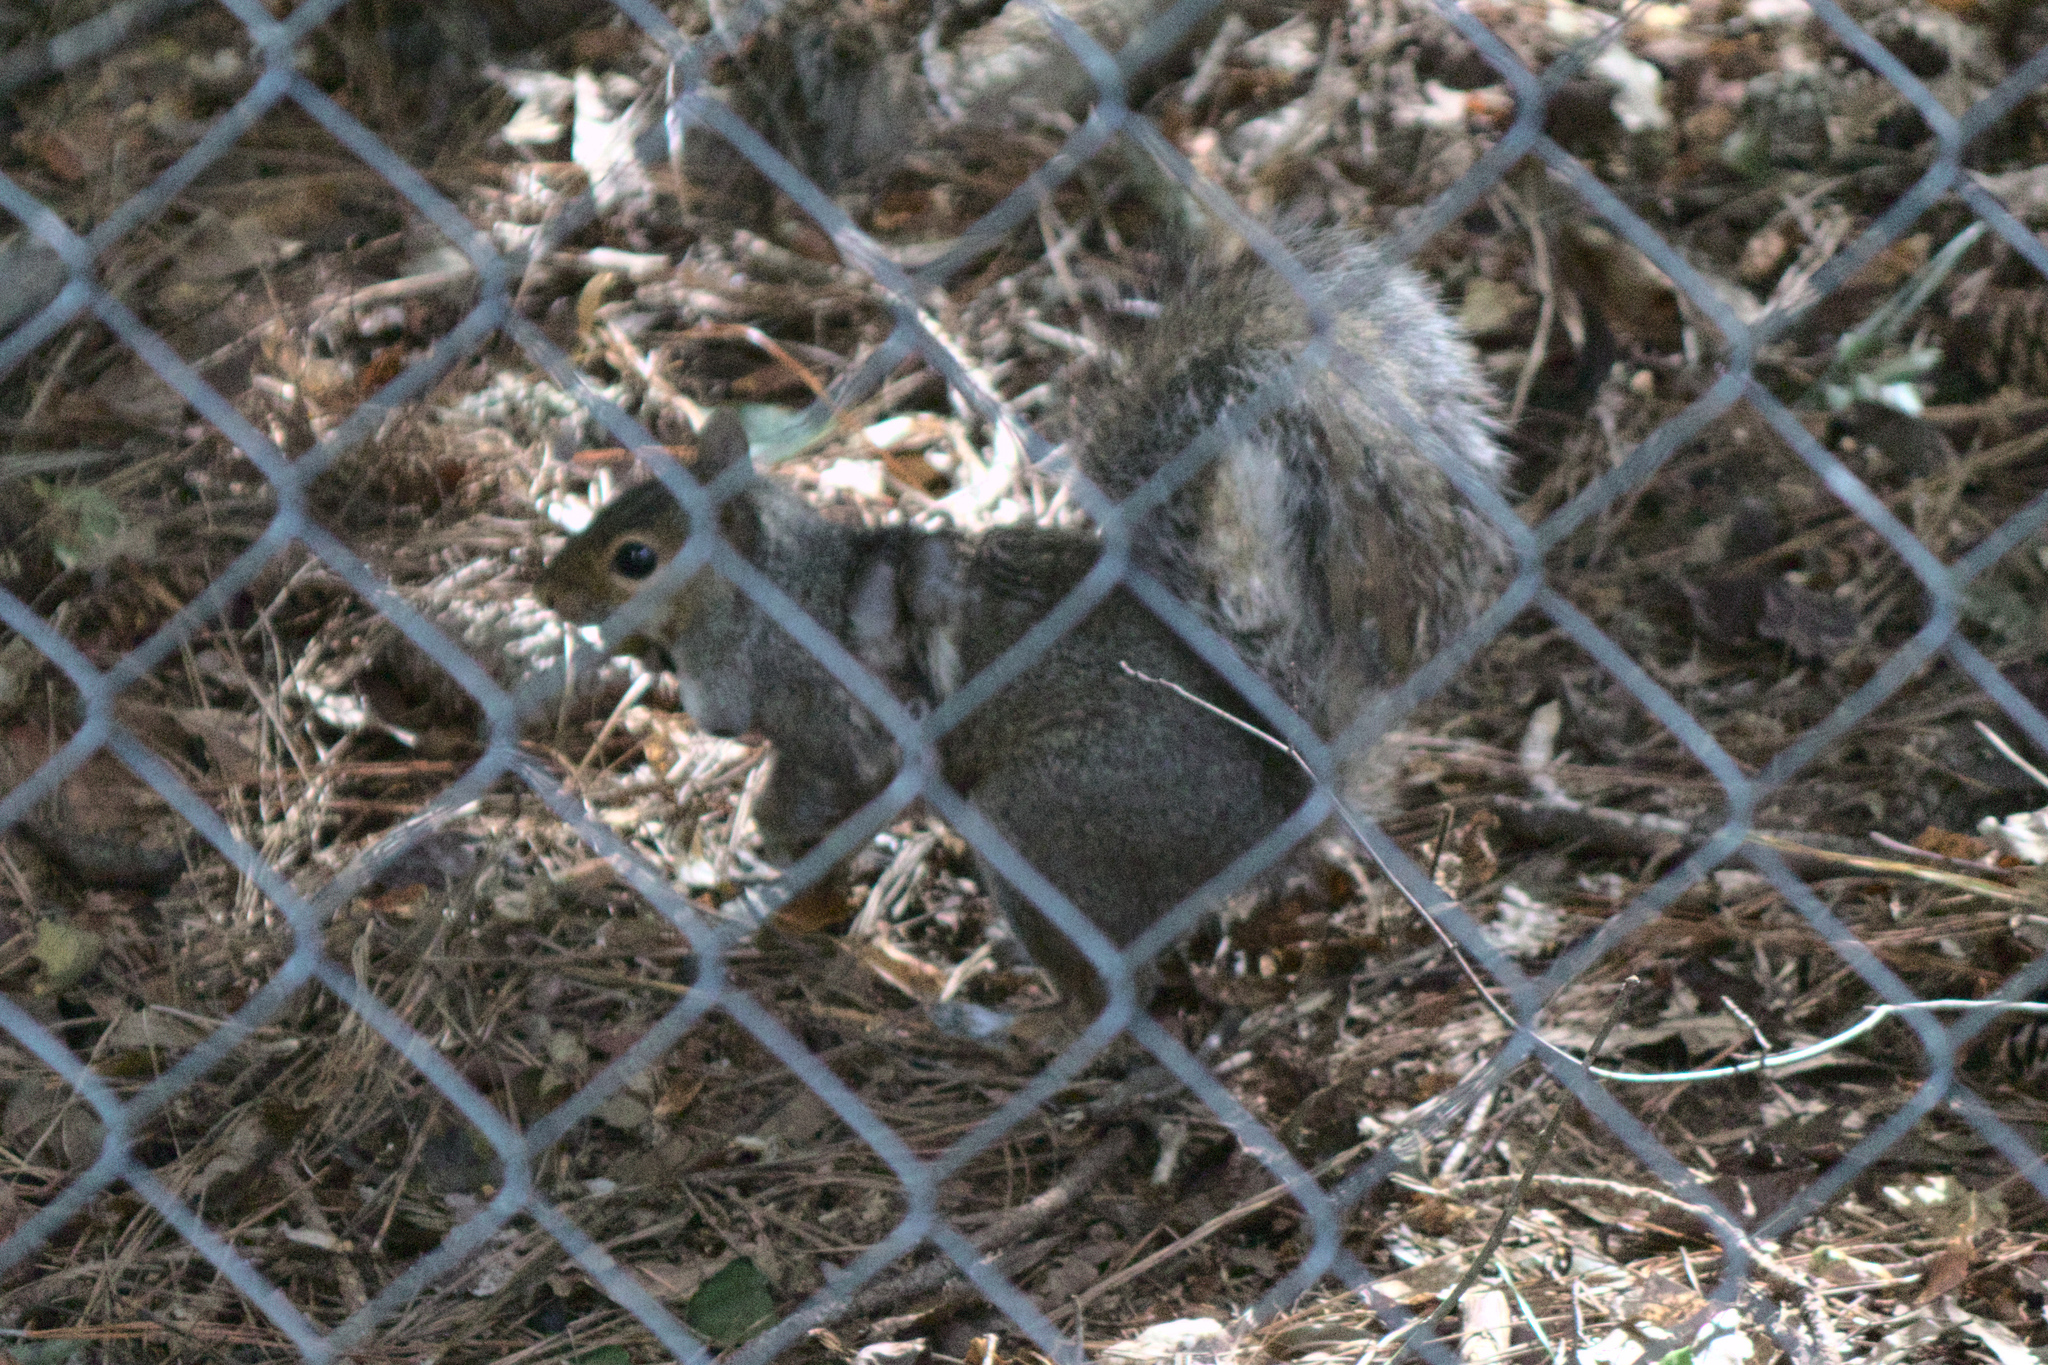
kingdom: Animalia
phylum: Chordata
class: Mammalia
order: Rodentia
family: Sciuridae
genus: Sciurus
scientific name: Sciurus carolinensis
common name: Eastern gray squirrel
